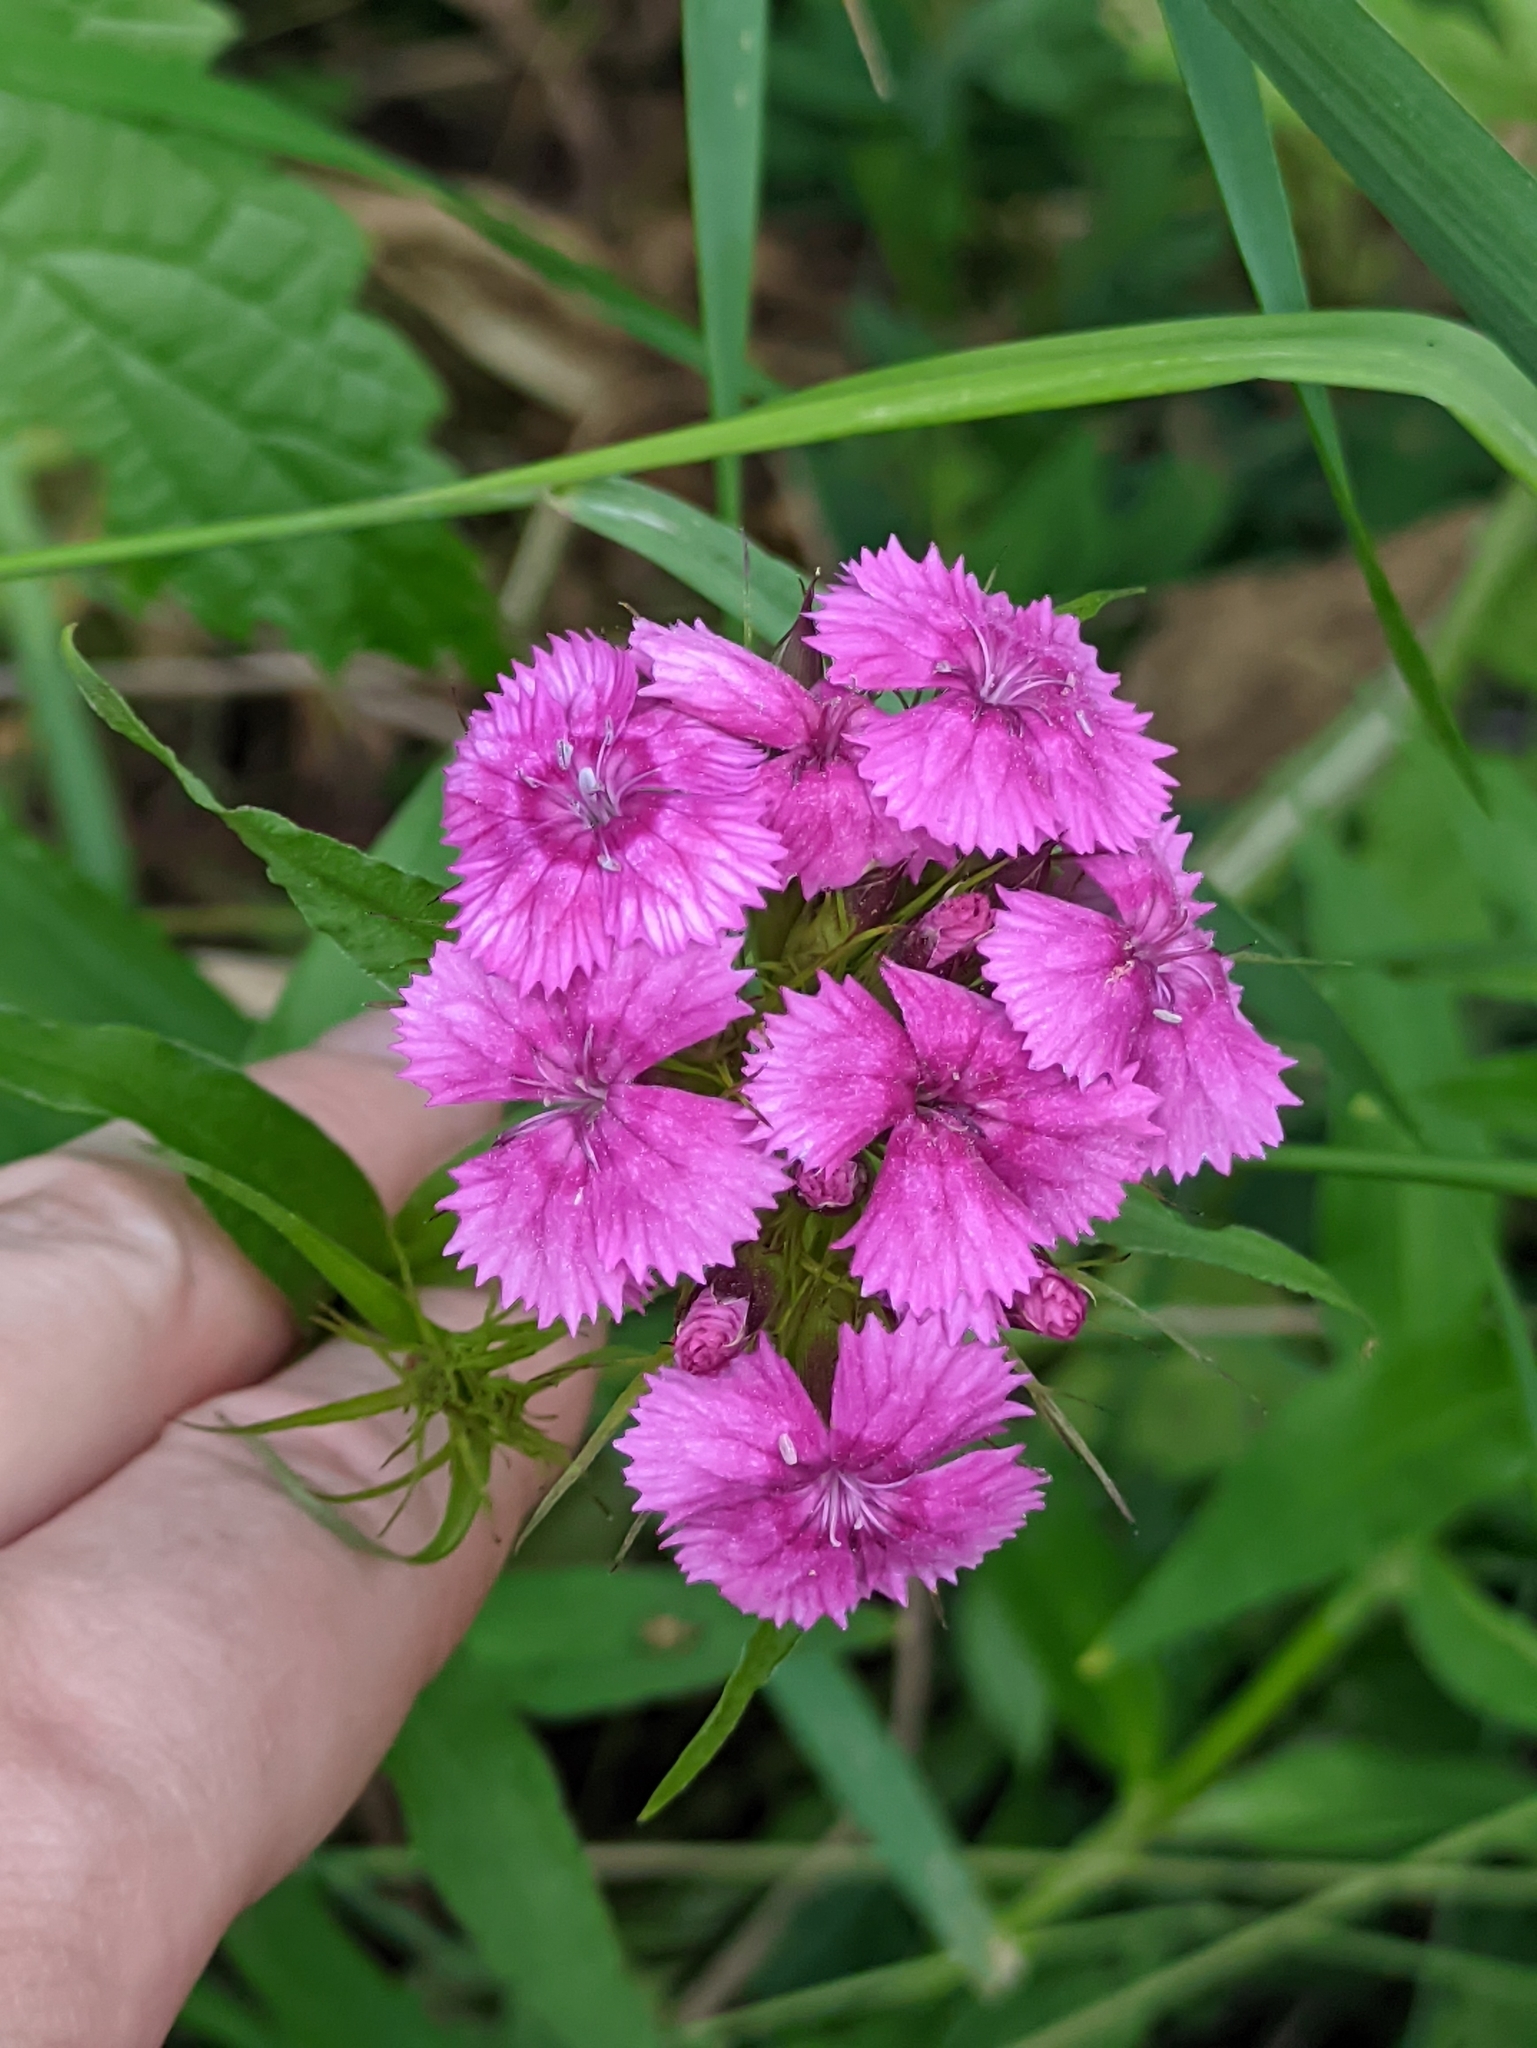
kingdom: Plantae
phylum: Tracheophyta
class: Magnoliopsida
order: Caryophyllales
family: Caryophyllaceae
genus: Dianthus
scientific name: Dianthus barbatus
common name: Sweet-william
